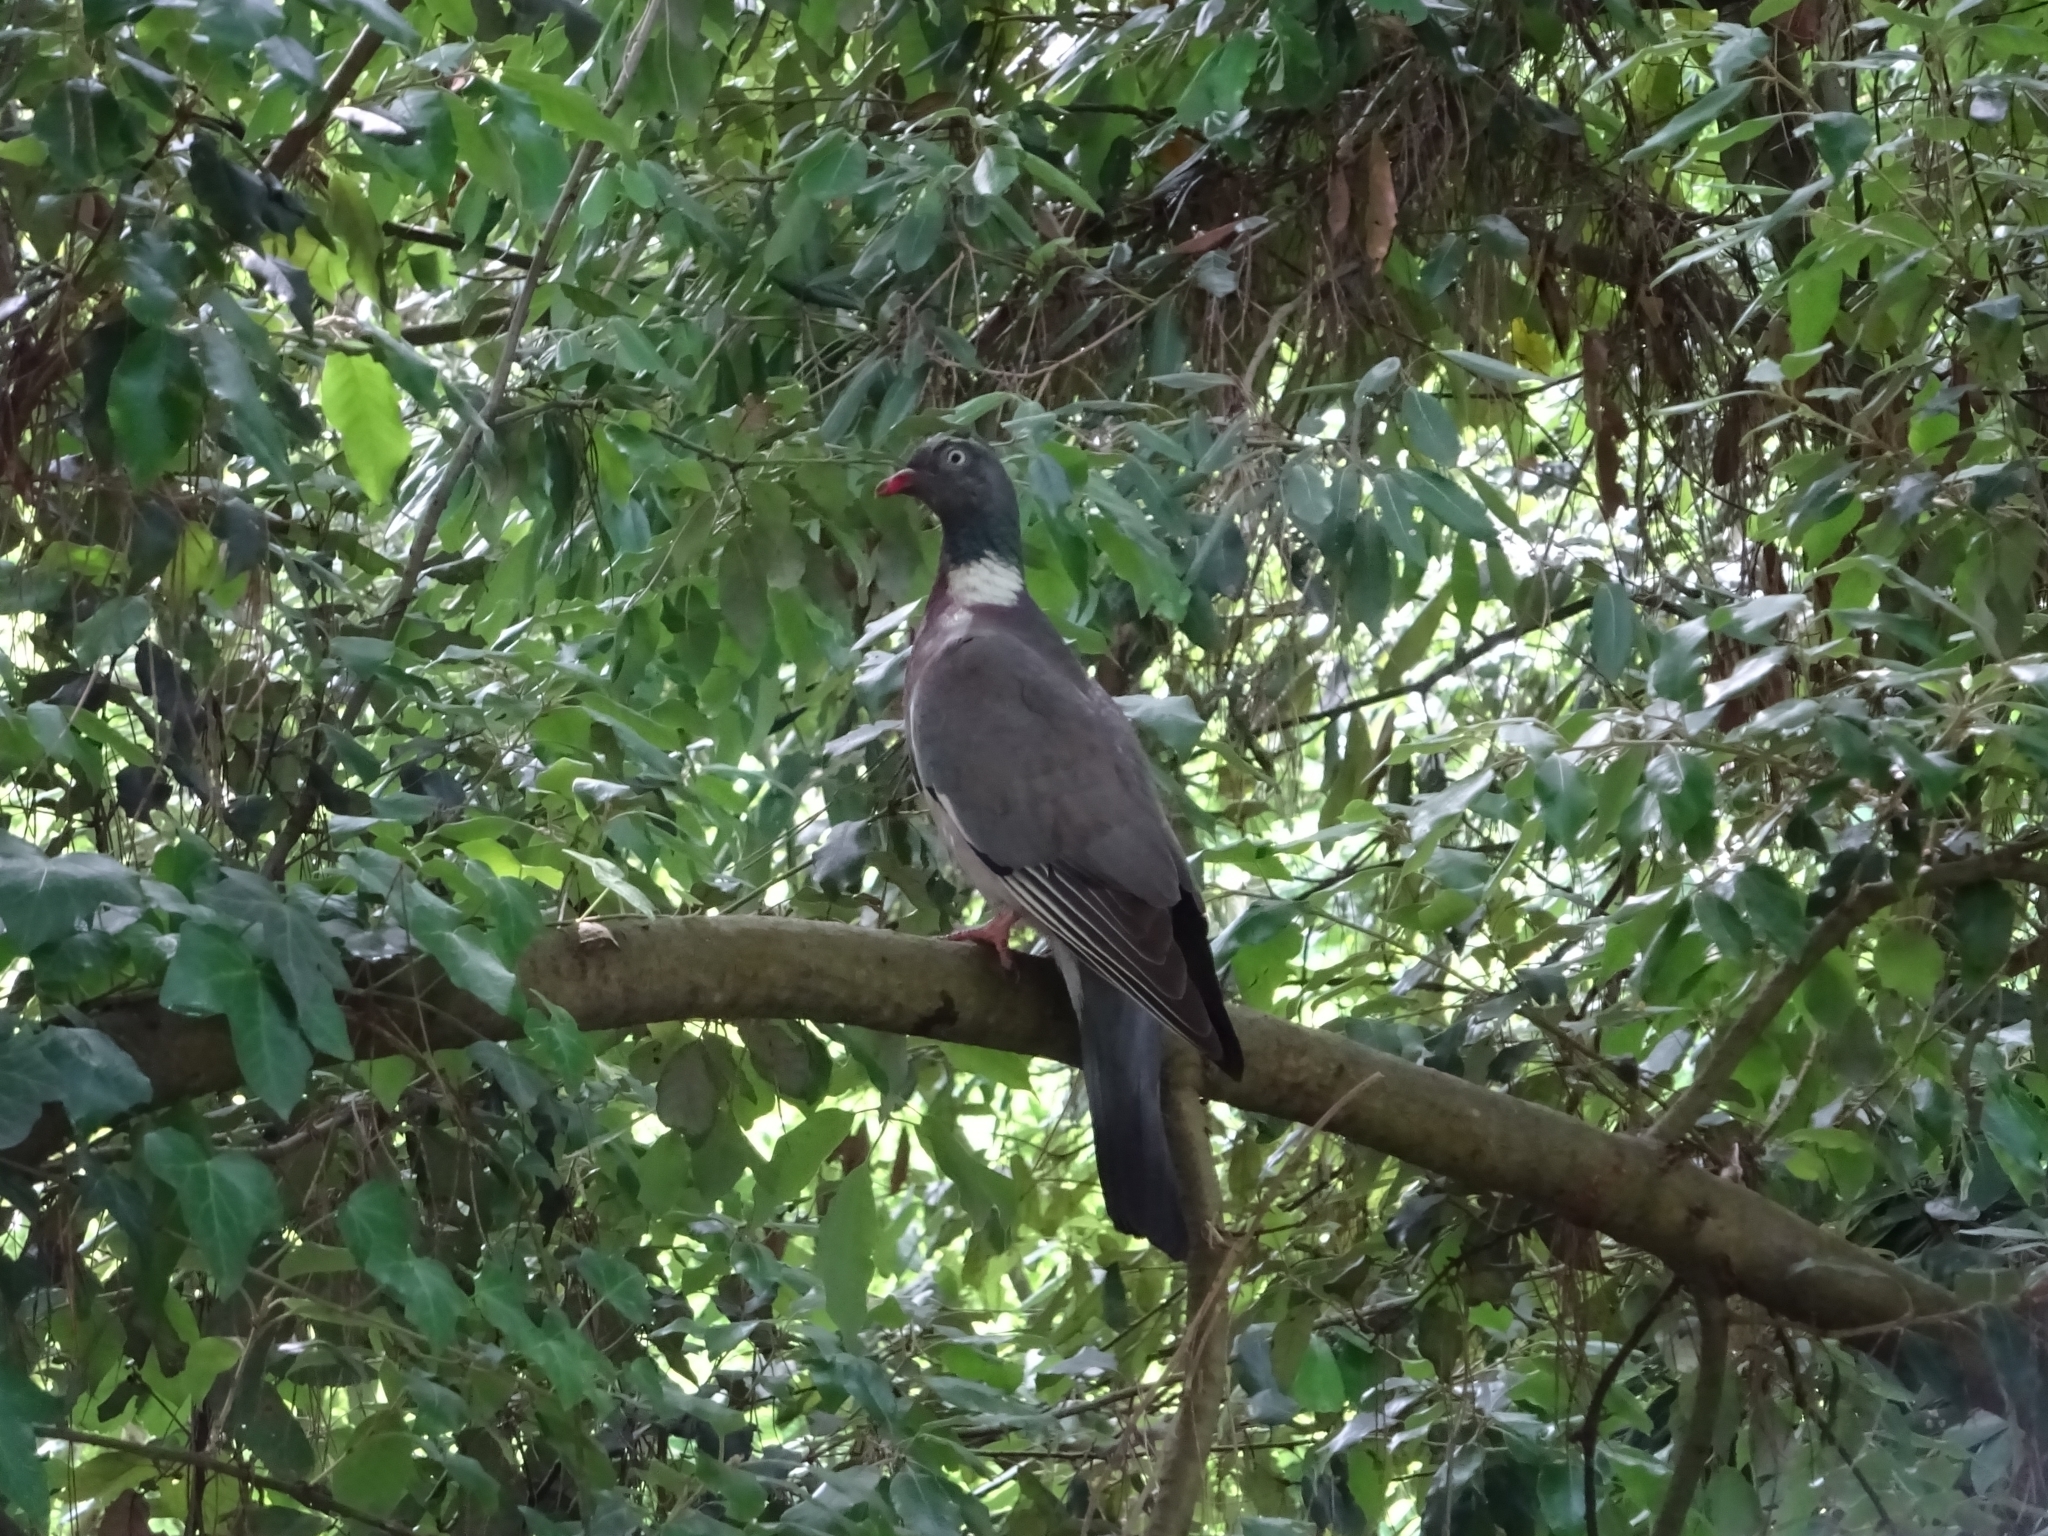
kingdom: Animalia
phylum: Chordata
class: Aves
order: Columbiformes
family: Columbidae
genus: Columba
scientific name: Columba palumbus
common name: Common wood pigeon
